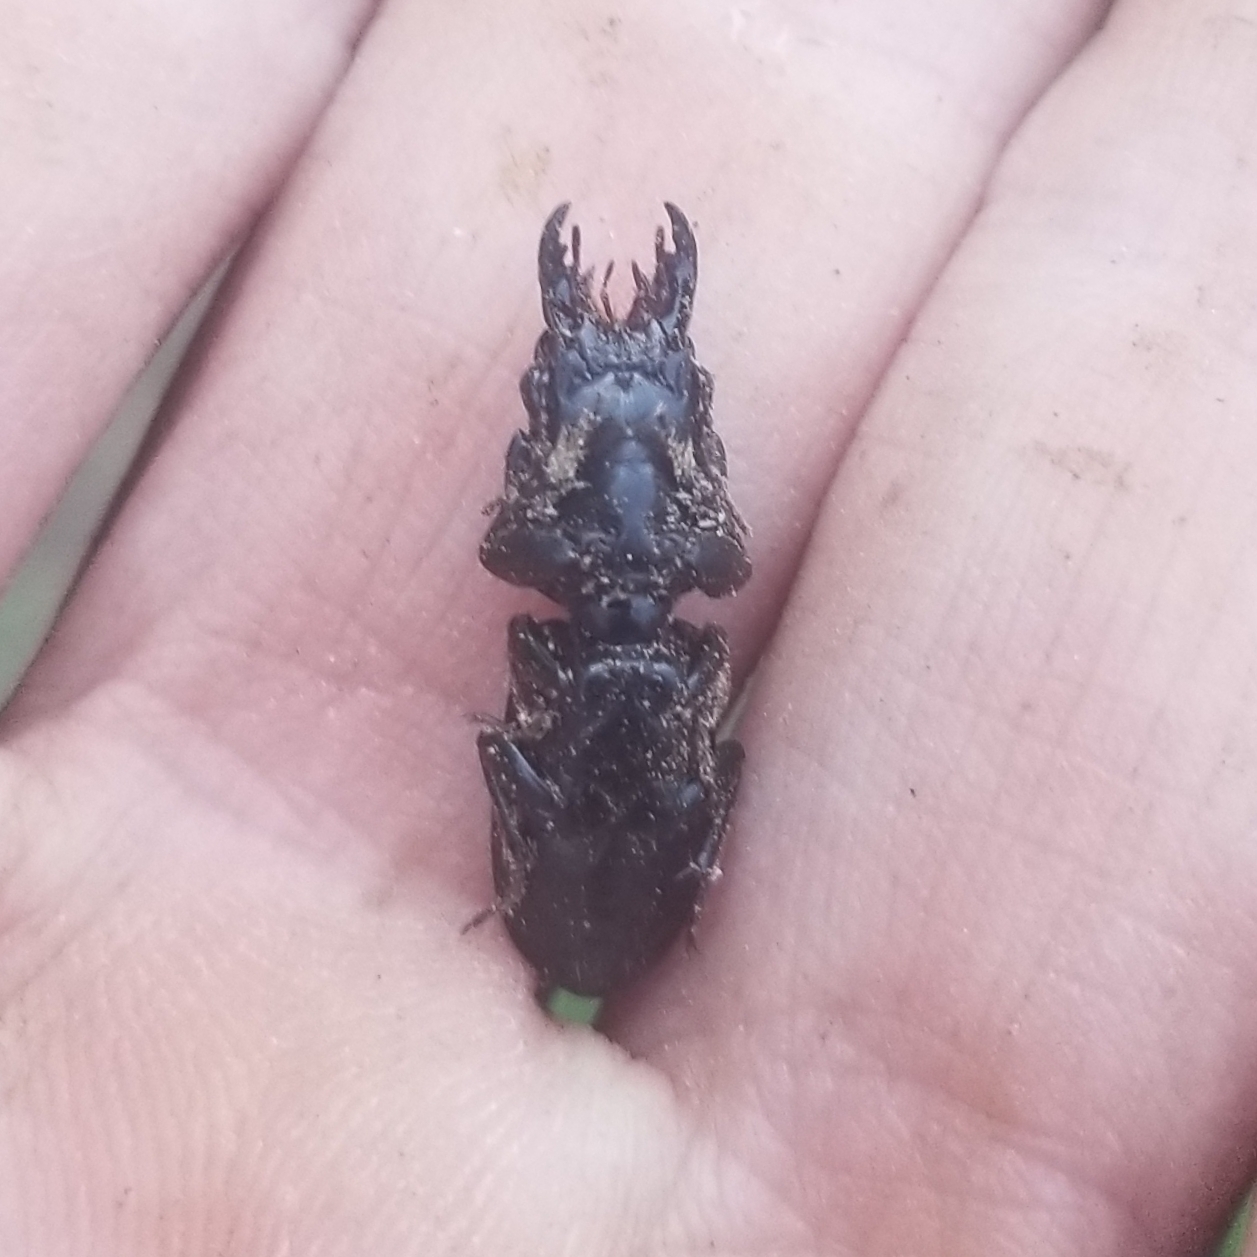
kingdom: Animalia
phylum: Arthropoda
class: Insecta
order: Coleoptera
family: Carabidae
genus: Scarites
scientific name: Scarites subterraneus
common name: Big-headed ground beetle
